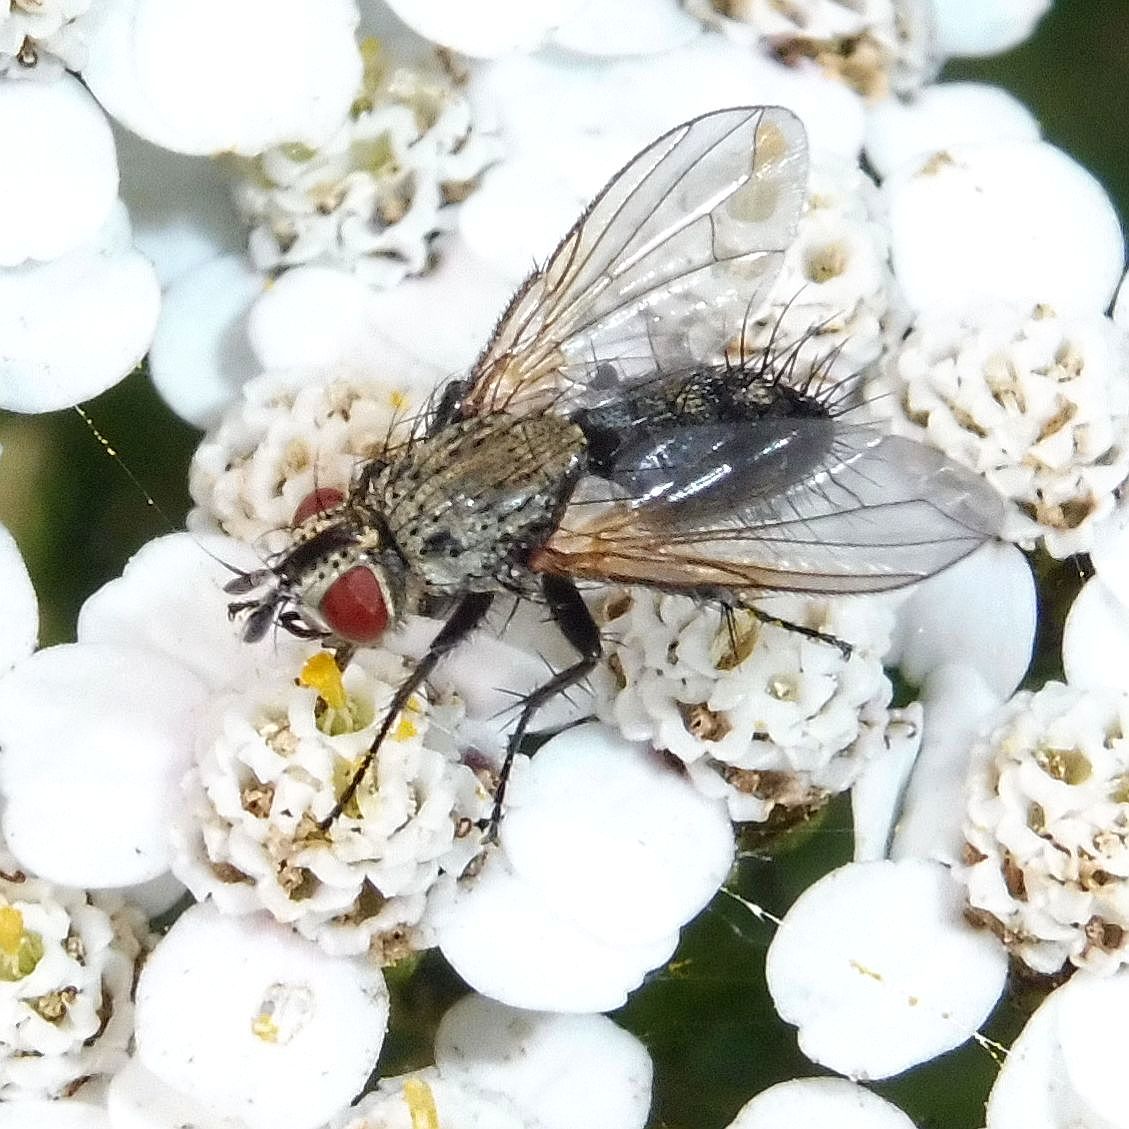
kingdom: Animalia
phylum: Arthropoda
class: Insecta
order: Diptera
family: Tachinidae
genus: Bithia
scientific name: Bithia spreta
